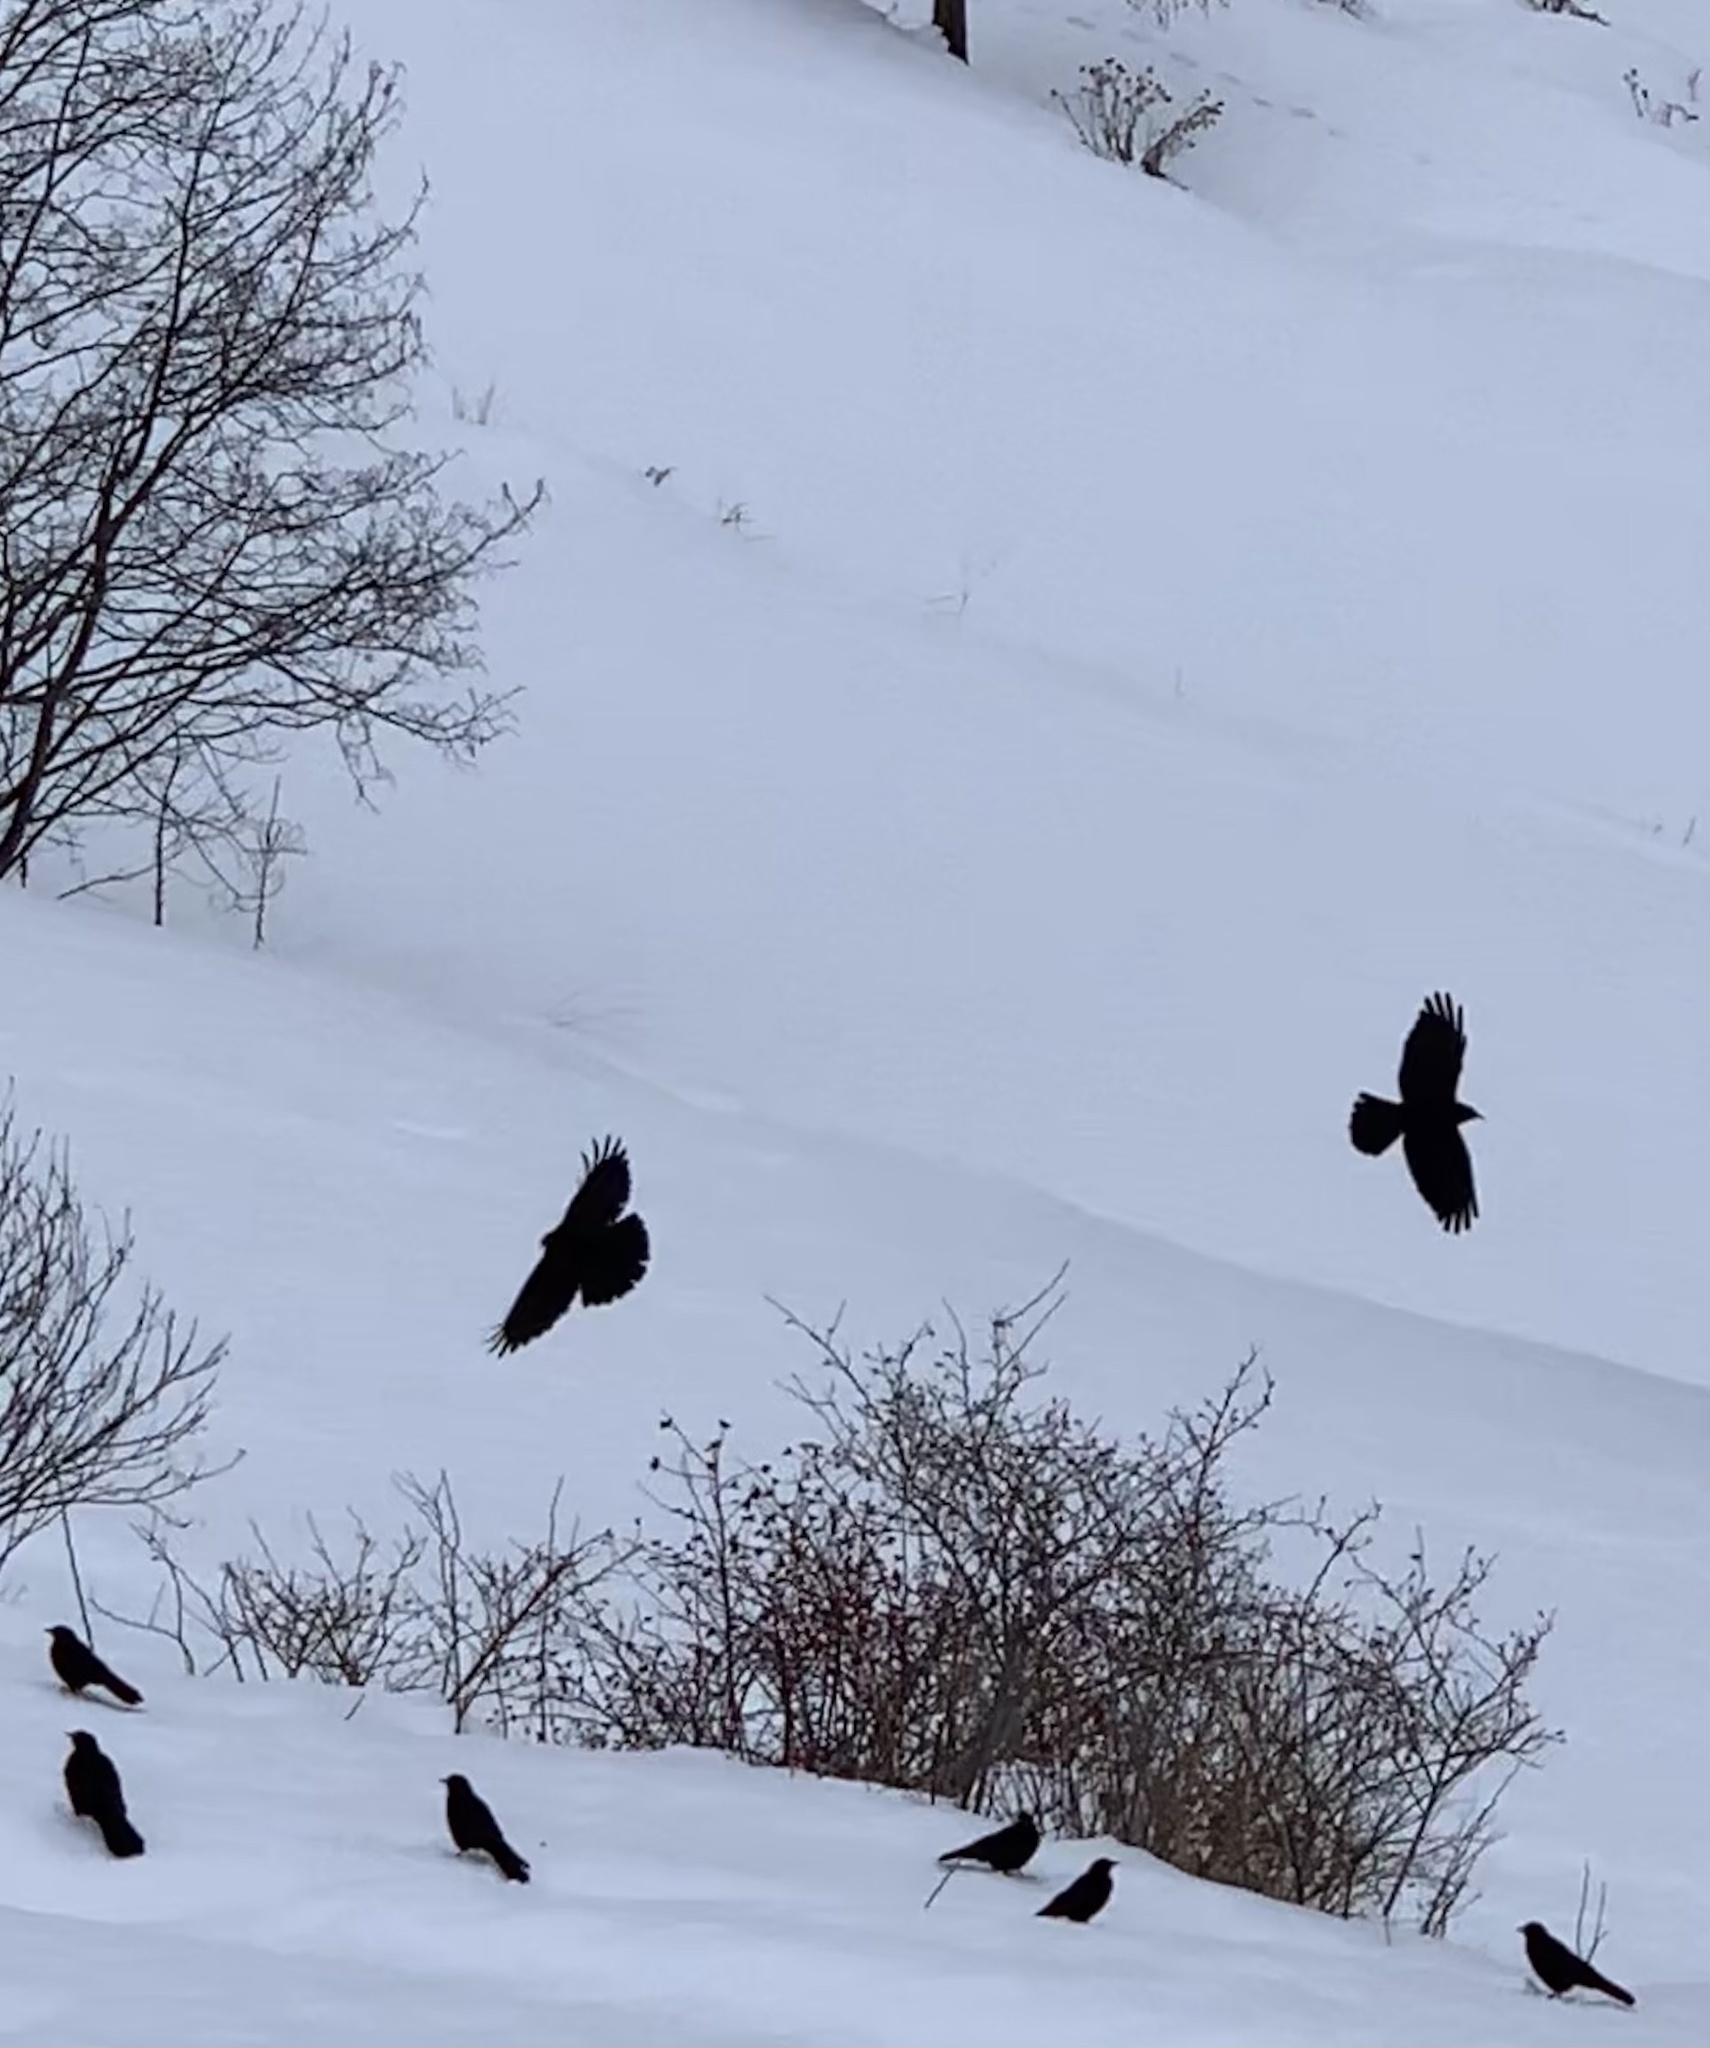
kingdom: Animalia
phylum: Chordata
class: Aves
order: Passeriformes
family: Corvidae
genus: Pyrrhocorax
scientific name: Pyrrhocorax graculus
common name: Alpine chough
